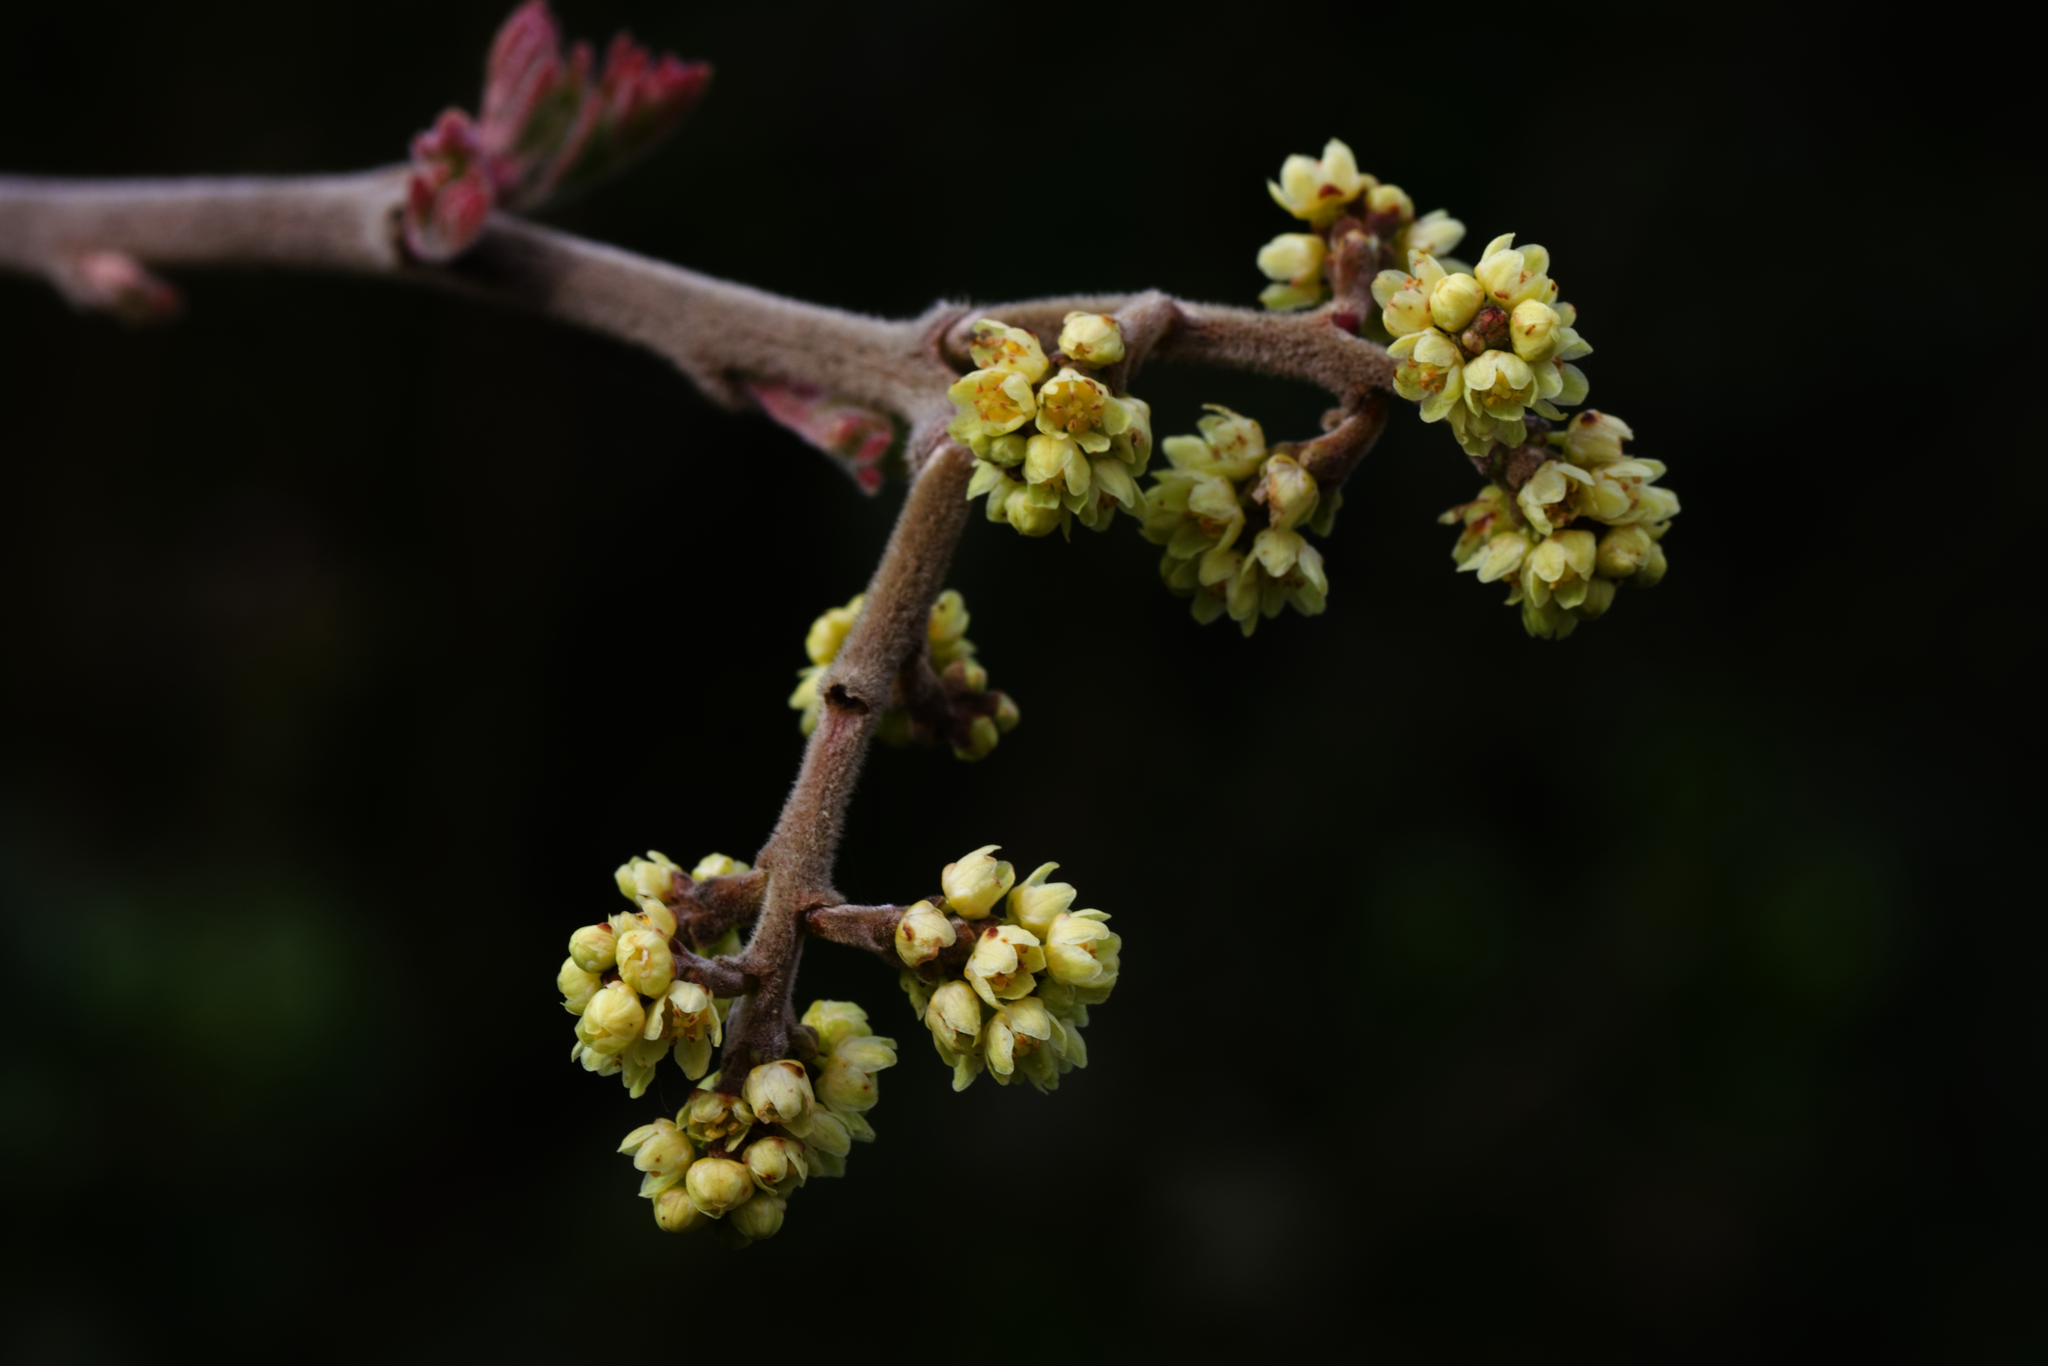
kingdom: Plantae
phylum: Tracheophyta
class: Magnoliopsida
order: Sapindales
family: Anacardiaceae
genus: Rhus
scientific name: Rhus aromatica
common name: Aromatic sumac
